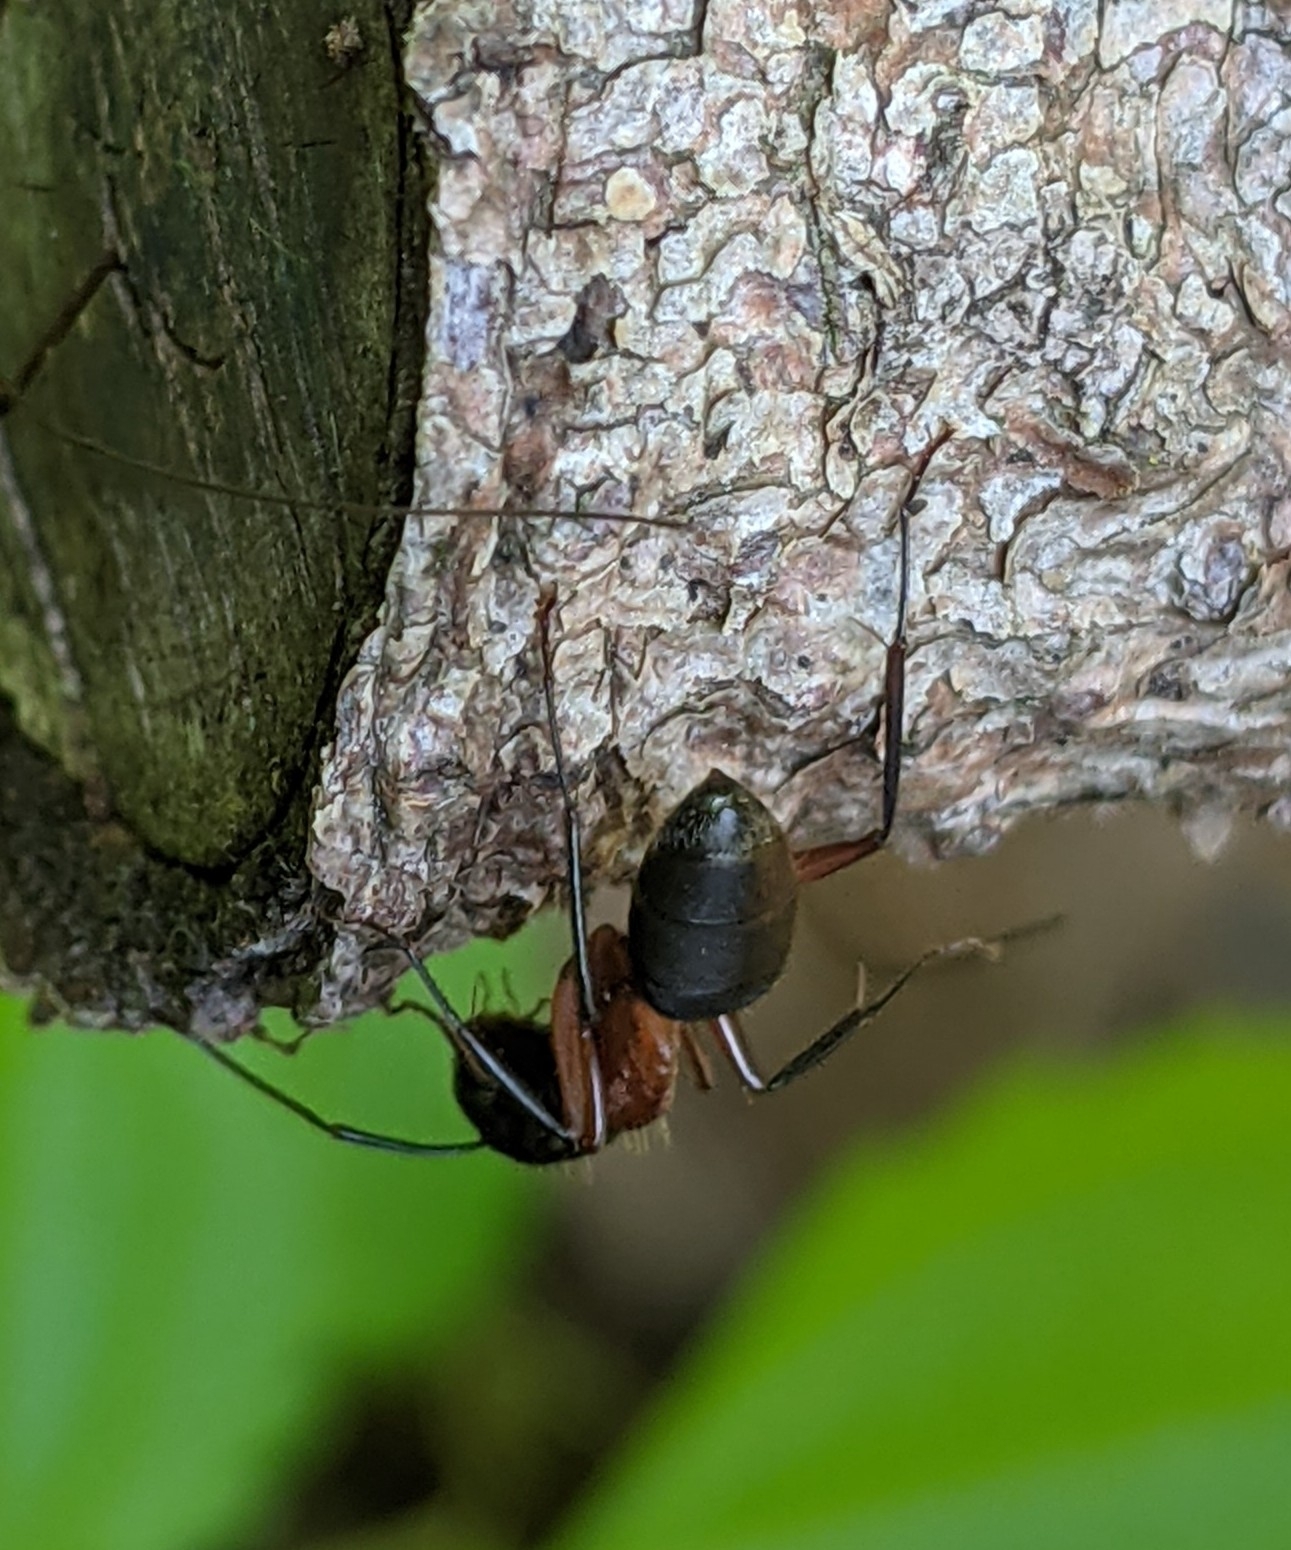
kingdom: Animalia
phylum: Arthropoda
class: Insecta
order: Hymenoptera
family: Formicidae
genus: Camponotus
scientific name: Camponotus chromaiodes
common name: Red carpenter ant
